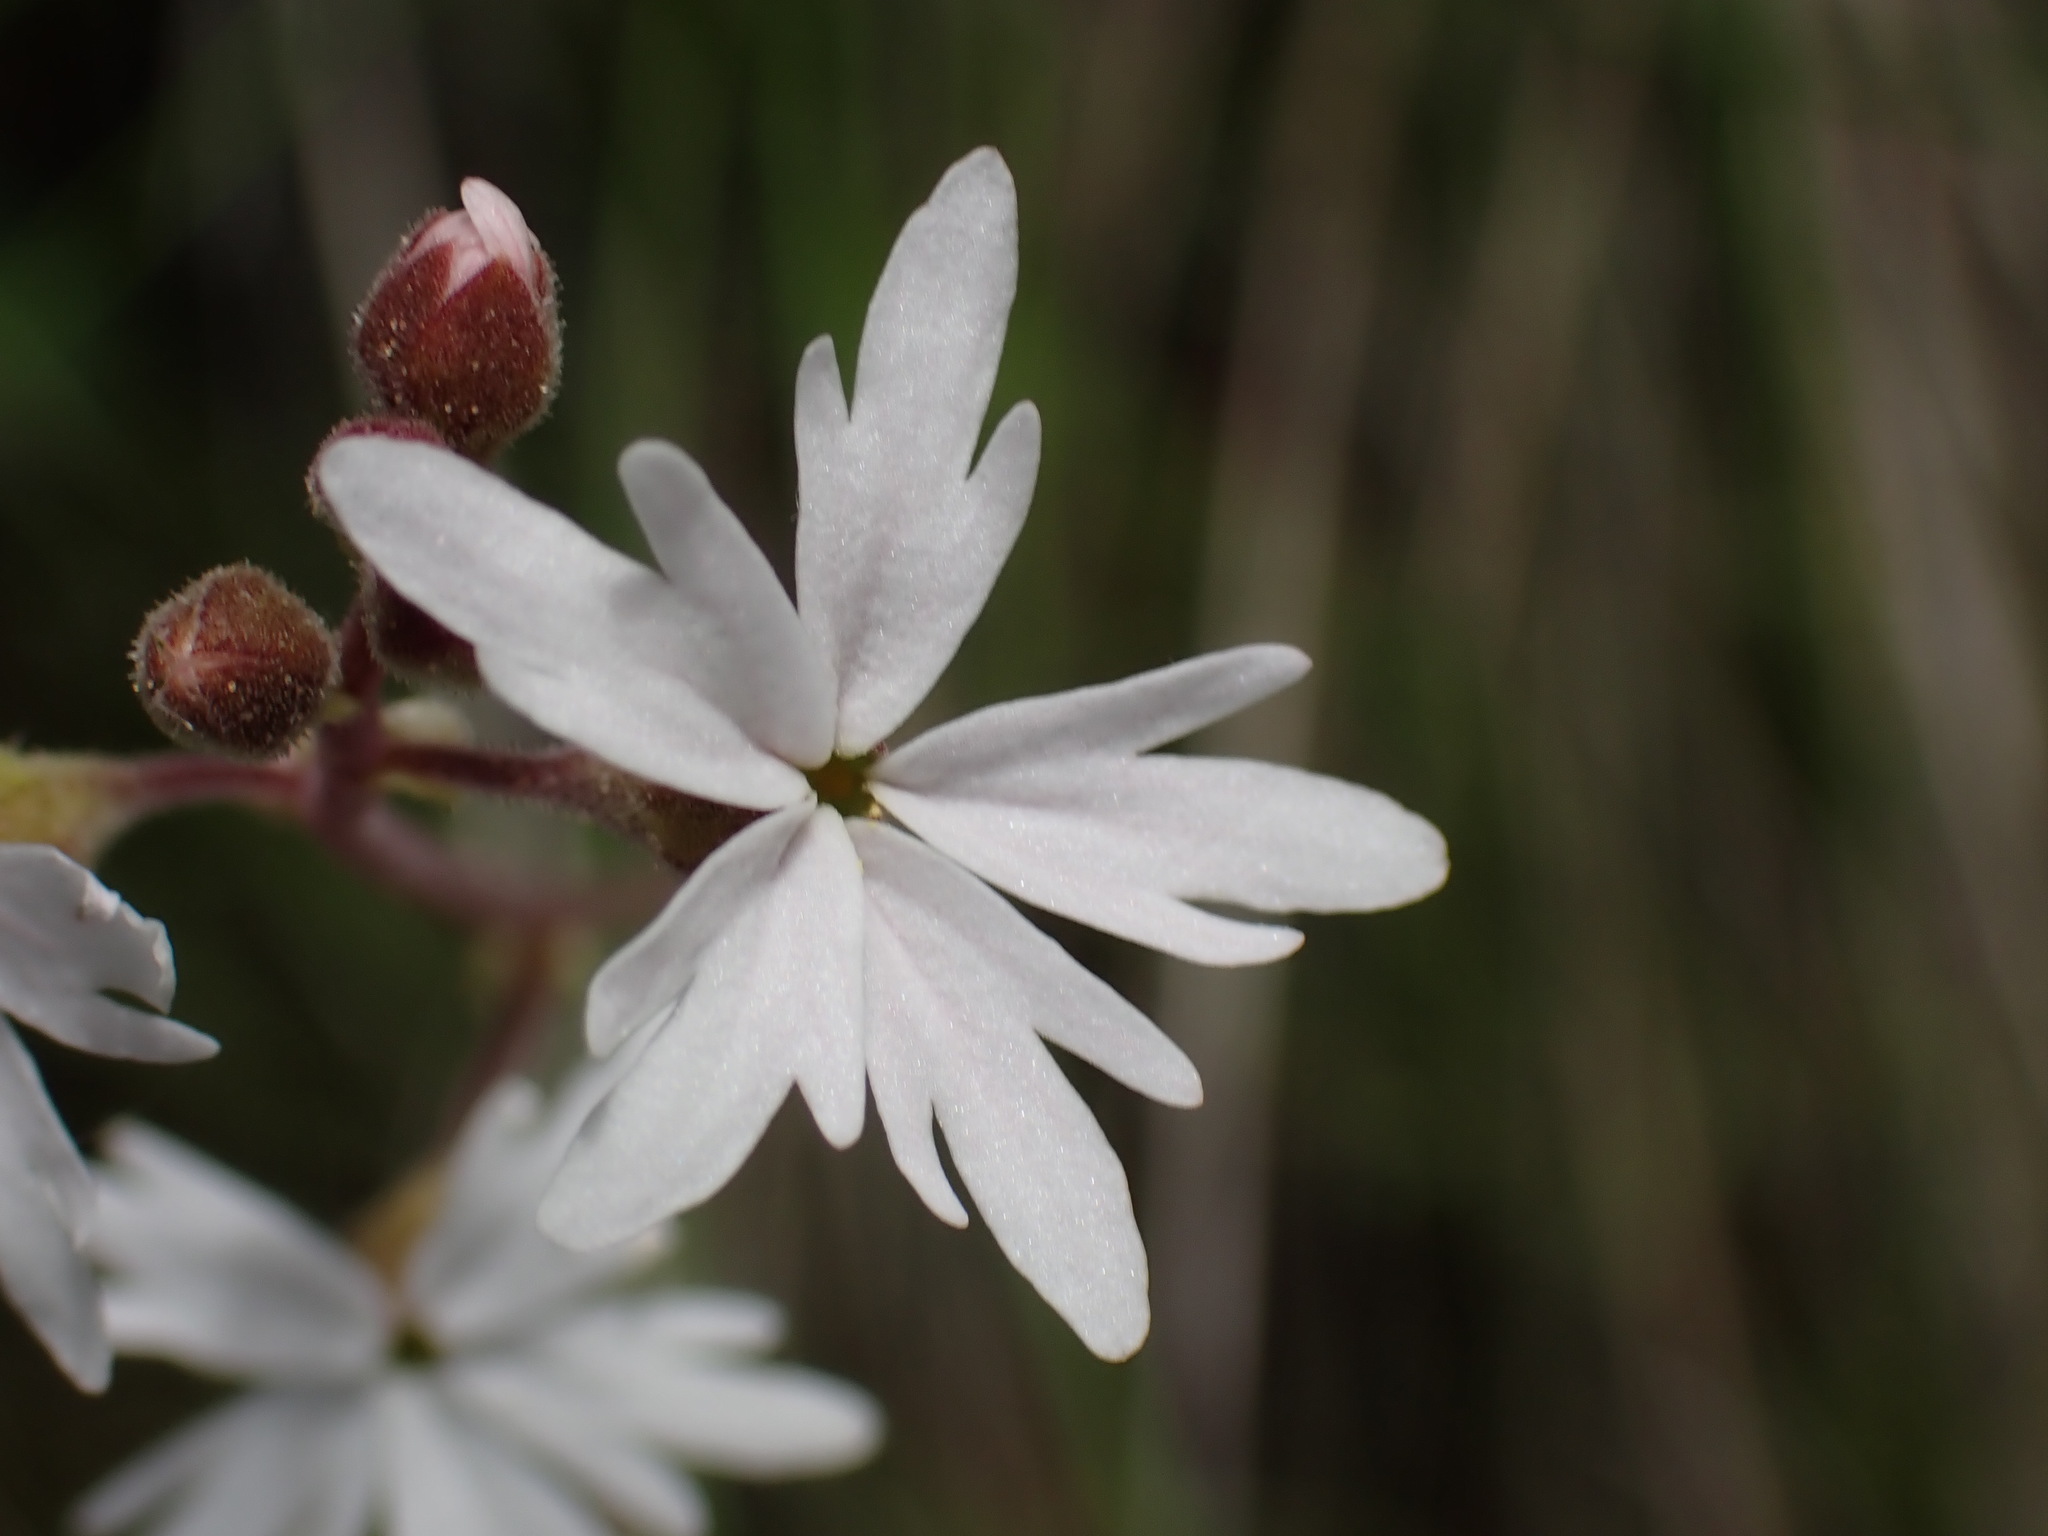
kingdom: Plantae
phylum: Tracheophyta
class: Magnoliopsida
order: Saxifragales
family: Saxifragaceae
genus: Lithophragma
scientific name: Lithophragma parviflorum
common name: Small-flowered fringe-cup
